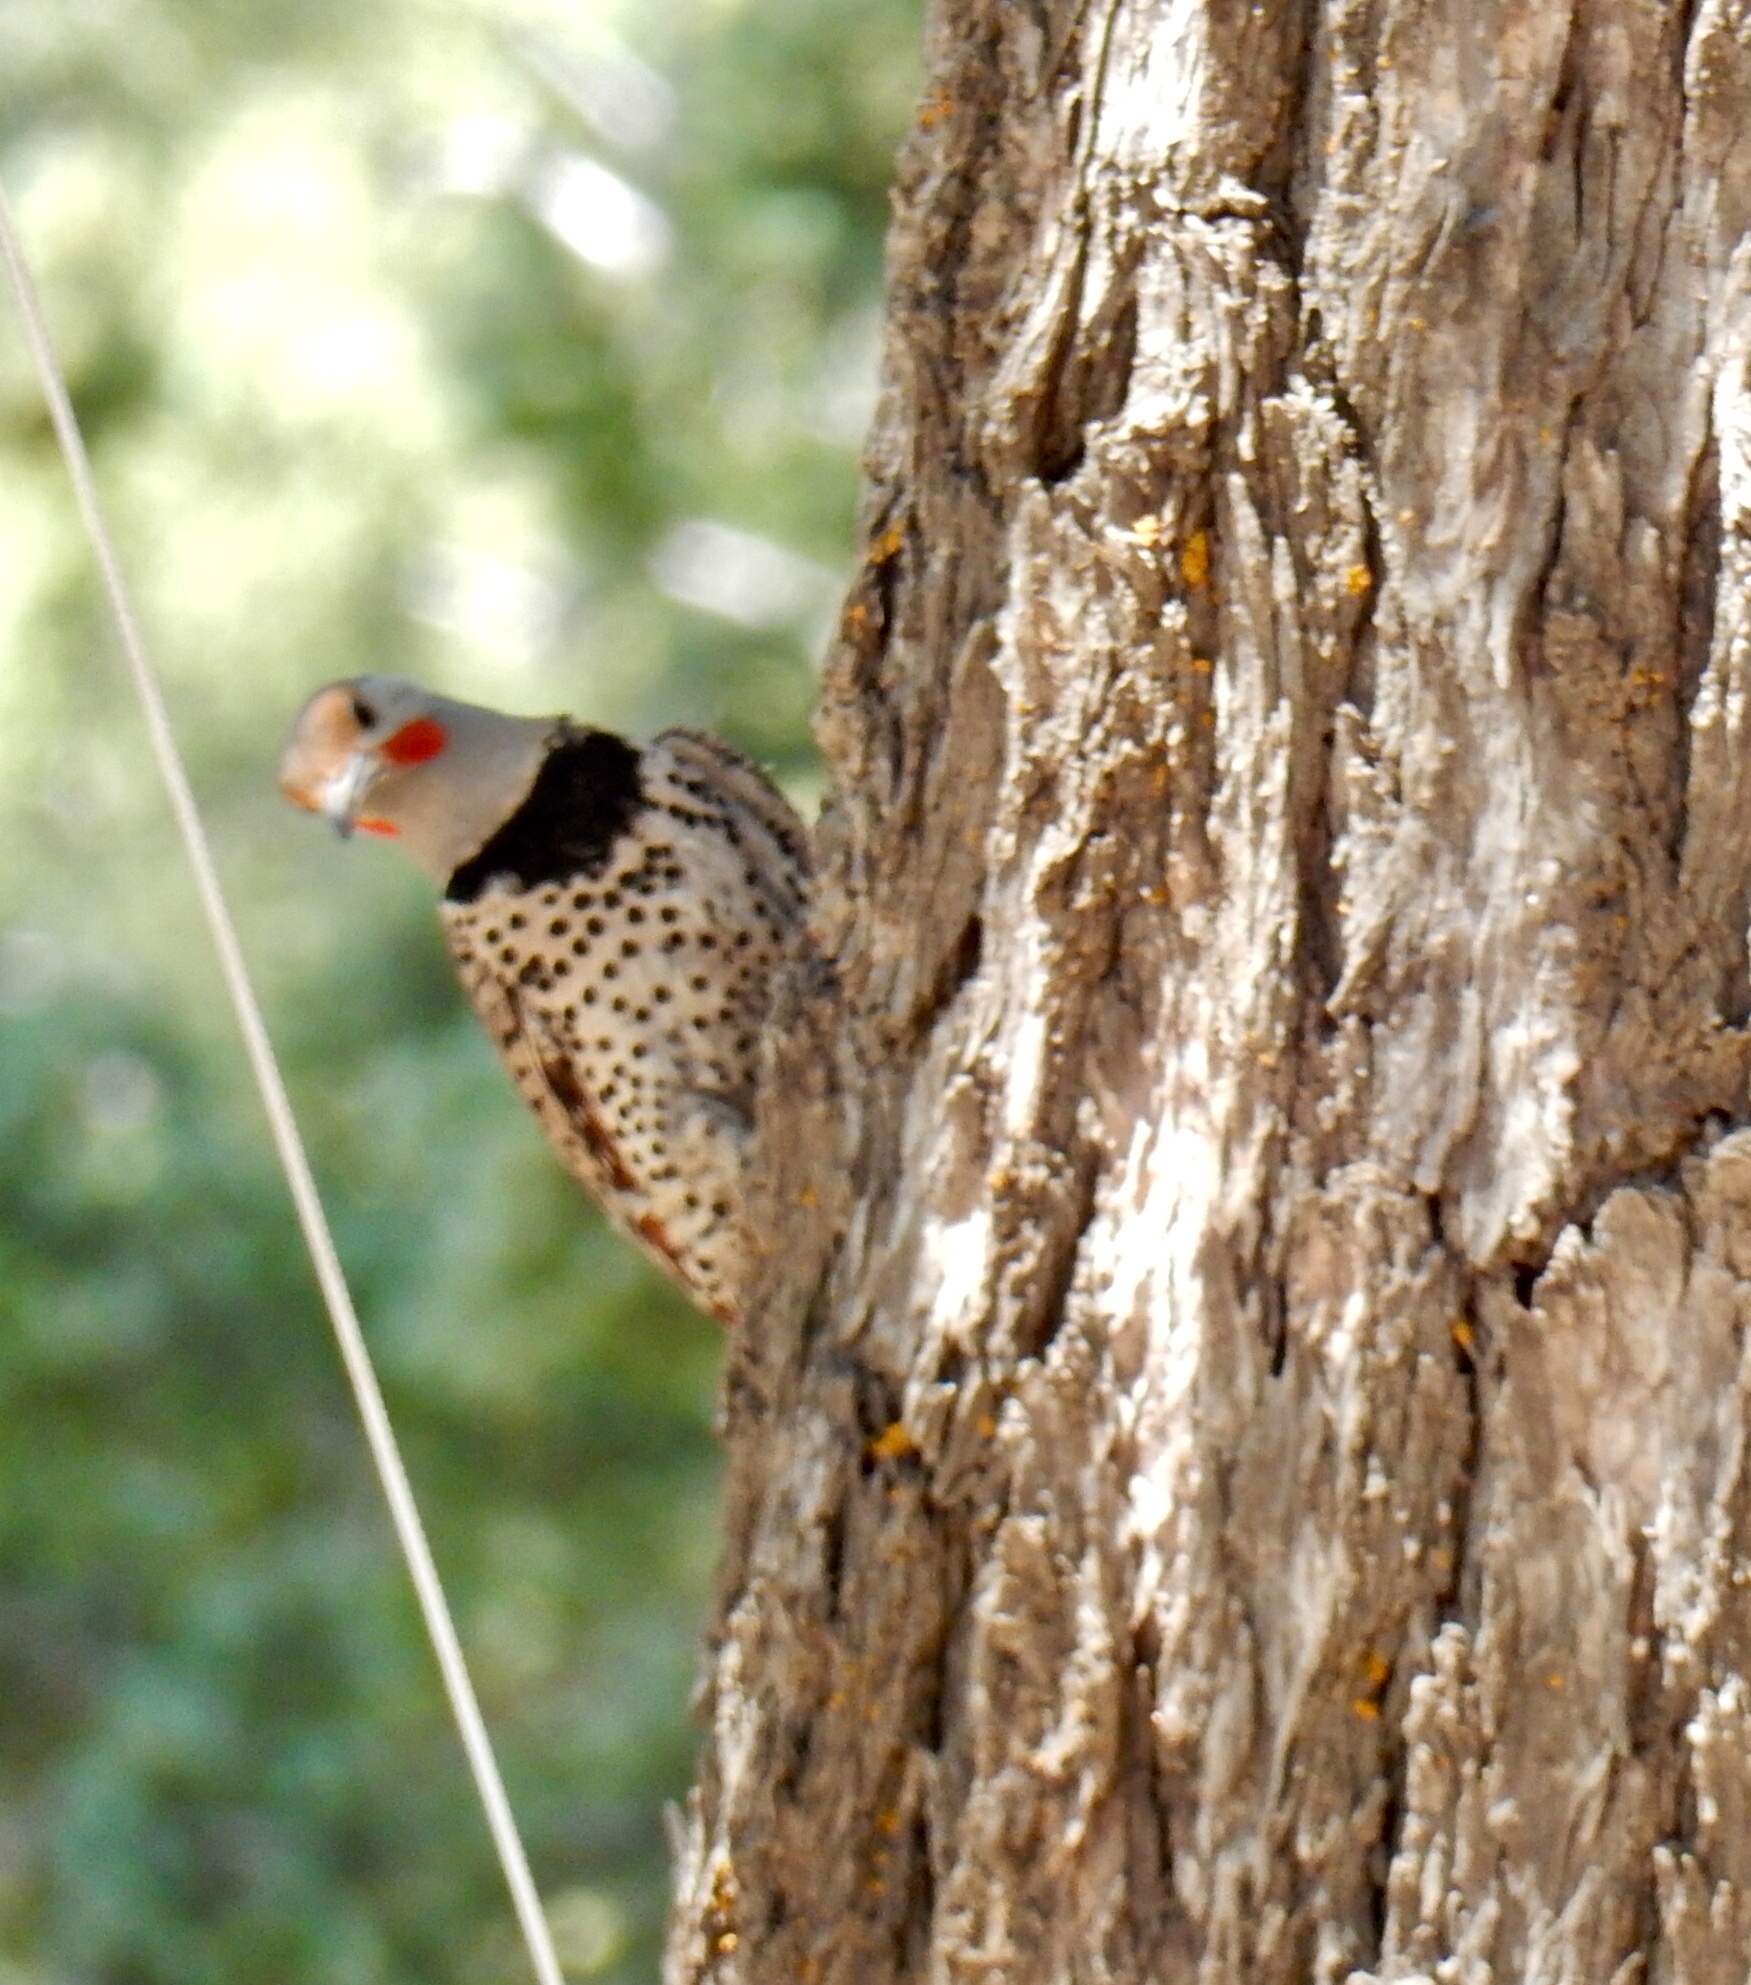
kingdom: Animalia
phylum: Chordata
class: Aves
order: Piciformes
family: Picidae
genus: Colaptes
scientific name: Colaptes auratus
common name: Northern flicker
